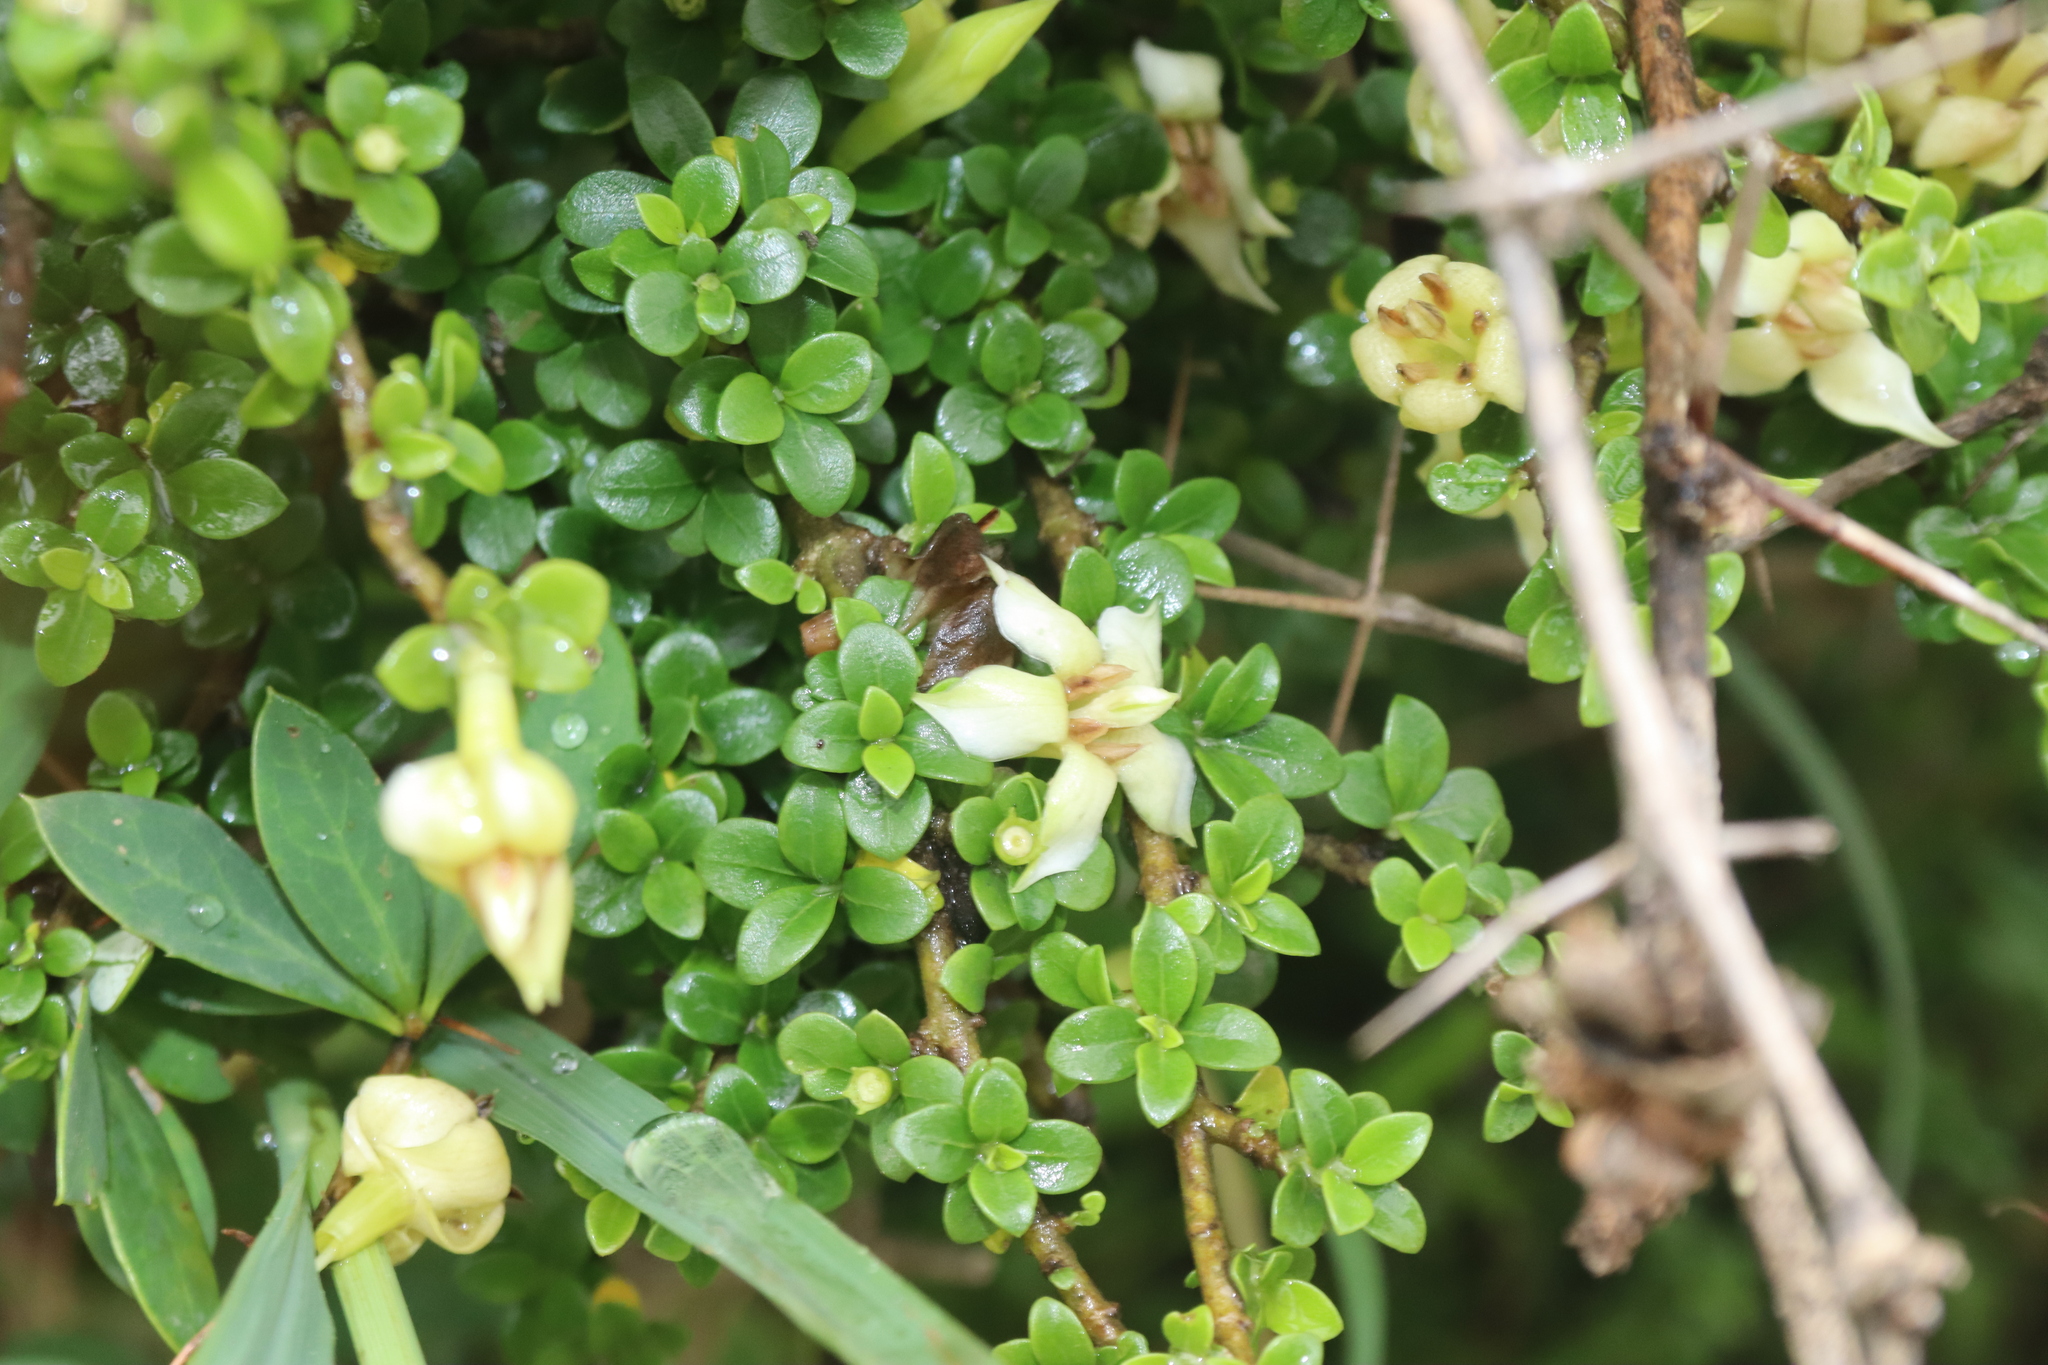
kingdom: Plantae
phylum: Tracheophyta
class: Magnoliopsida
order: Gentianales
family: Rubiaceae
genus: Himalrandia
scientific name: Himalrandia tetrasperma
